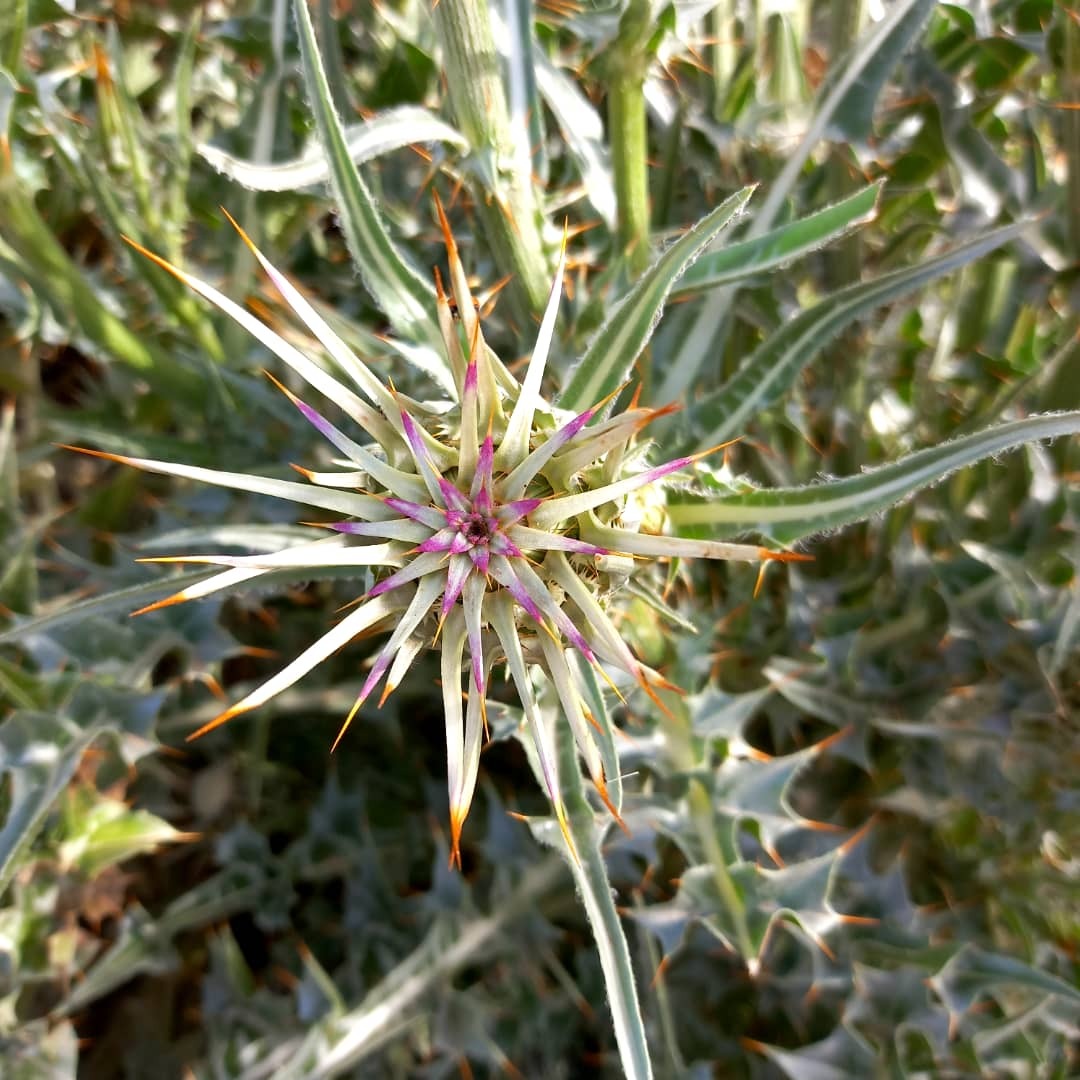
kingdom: Plantae
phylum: Tracheophyta
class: Magnoliopsida
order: Asterales
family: Asteraceae
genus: Silybum
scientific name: Silybum eburneum
